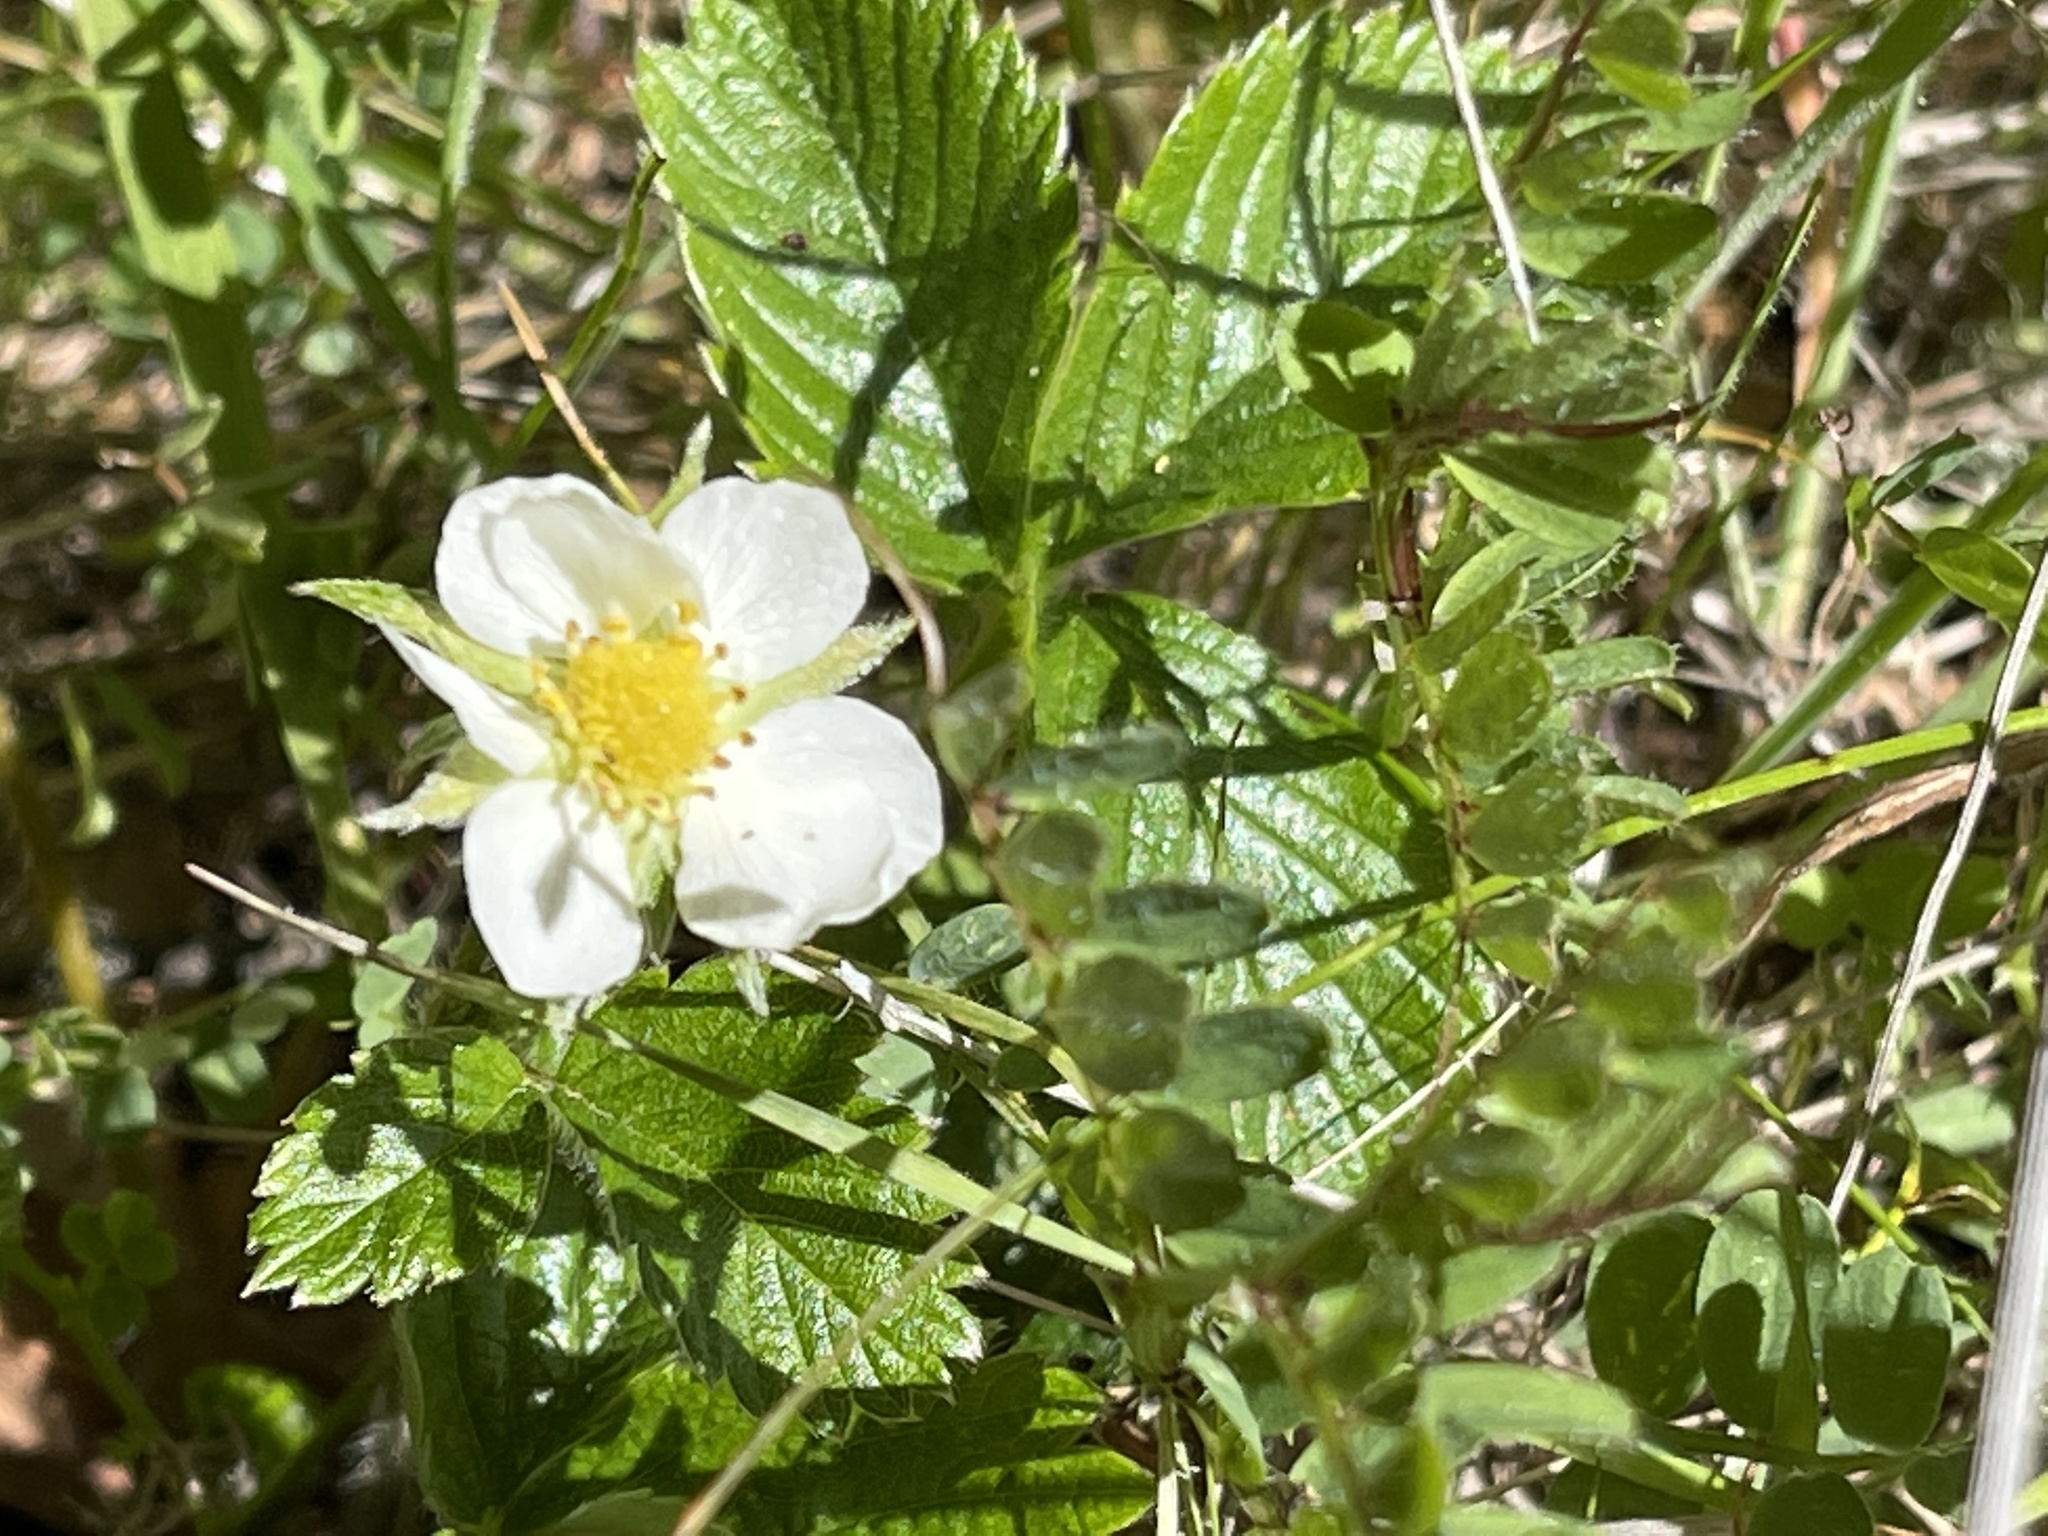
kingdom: Plantae
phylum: Tracheophyta
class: Magnoliopsida
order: Rosales
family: Rosaceae
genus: Fragaria
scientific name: Fragaria vesca
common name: Wild strawberry
